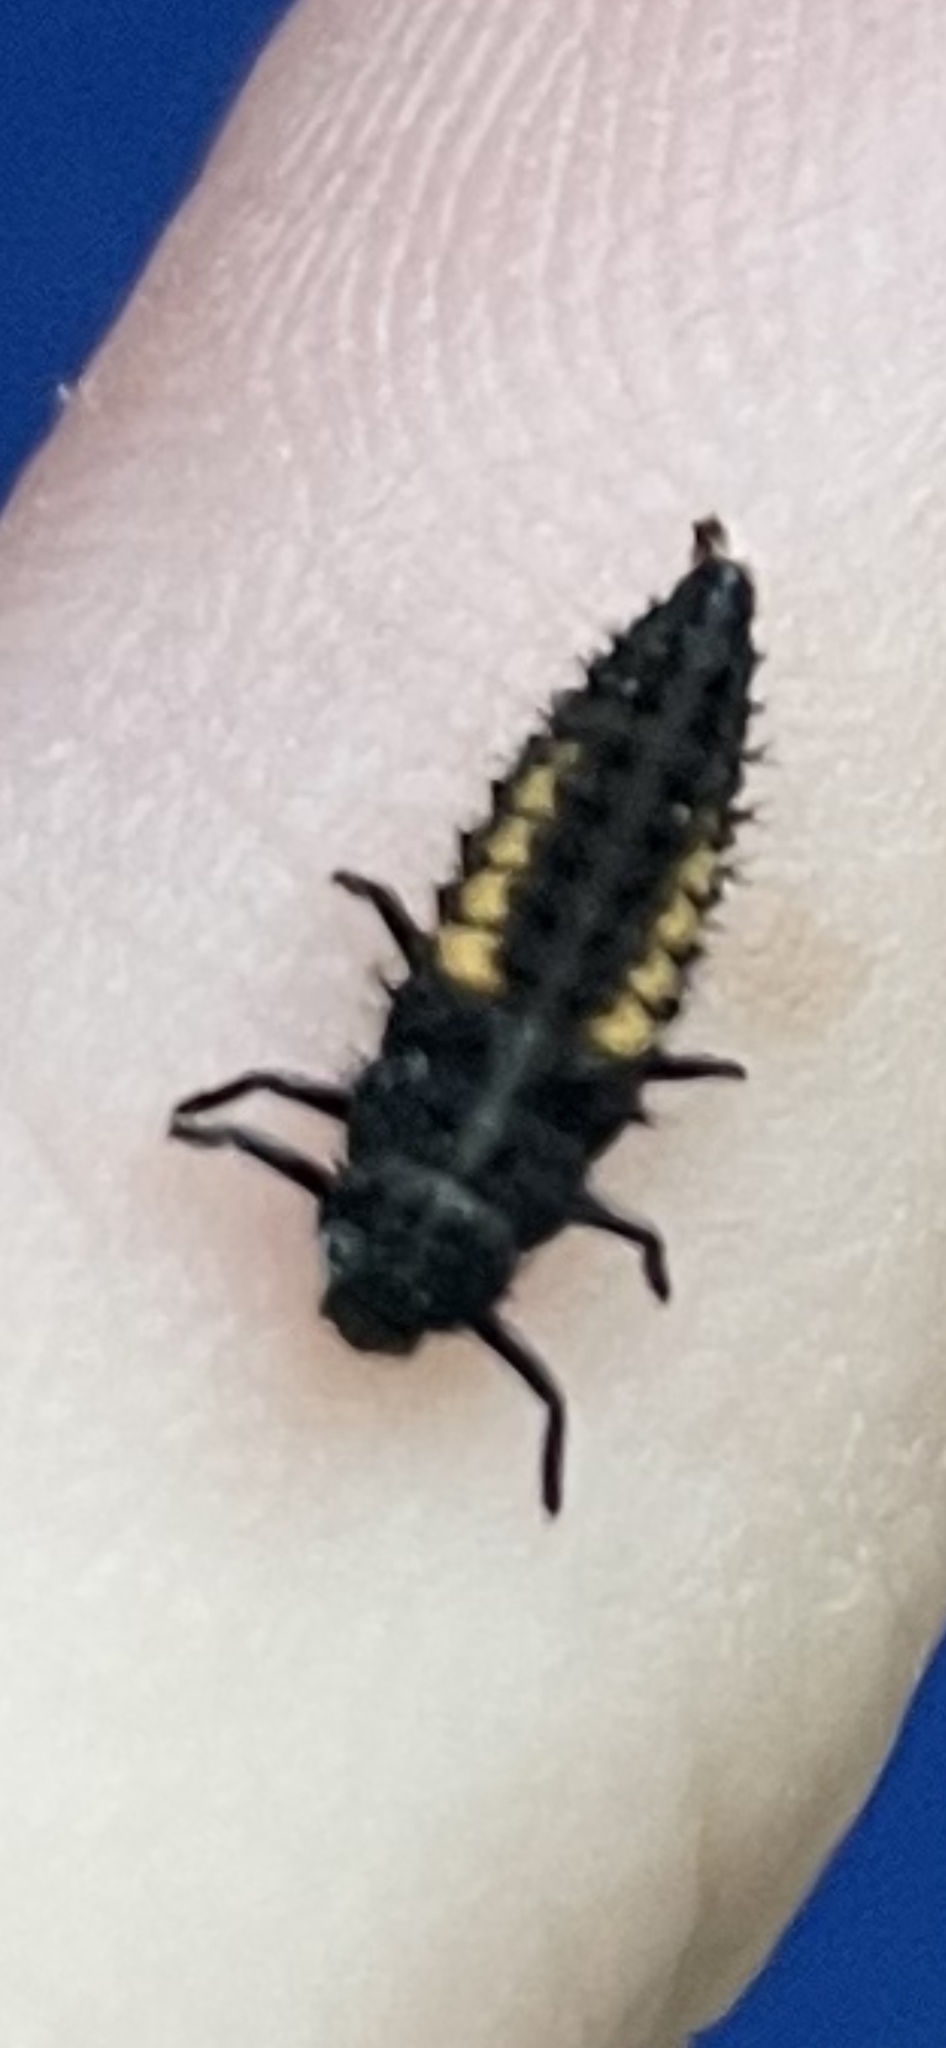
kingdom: Animalia
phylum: Arthropoda
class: Insecta
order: Coleoptera
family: Coccinellidae
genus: Harmonia
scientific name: Harmonia axyridis
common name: Harlequin ladybird
